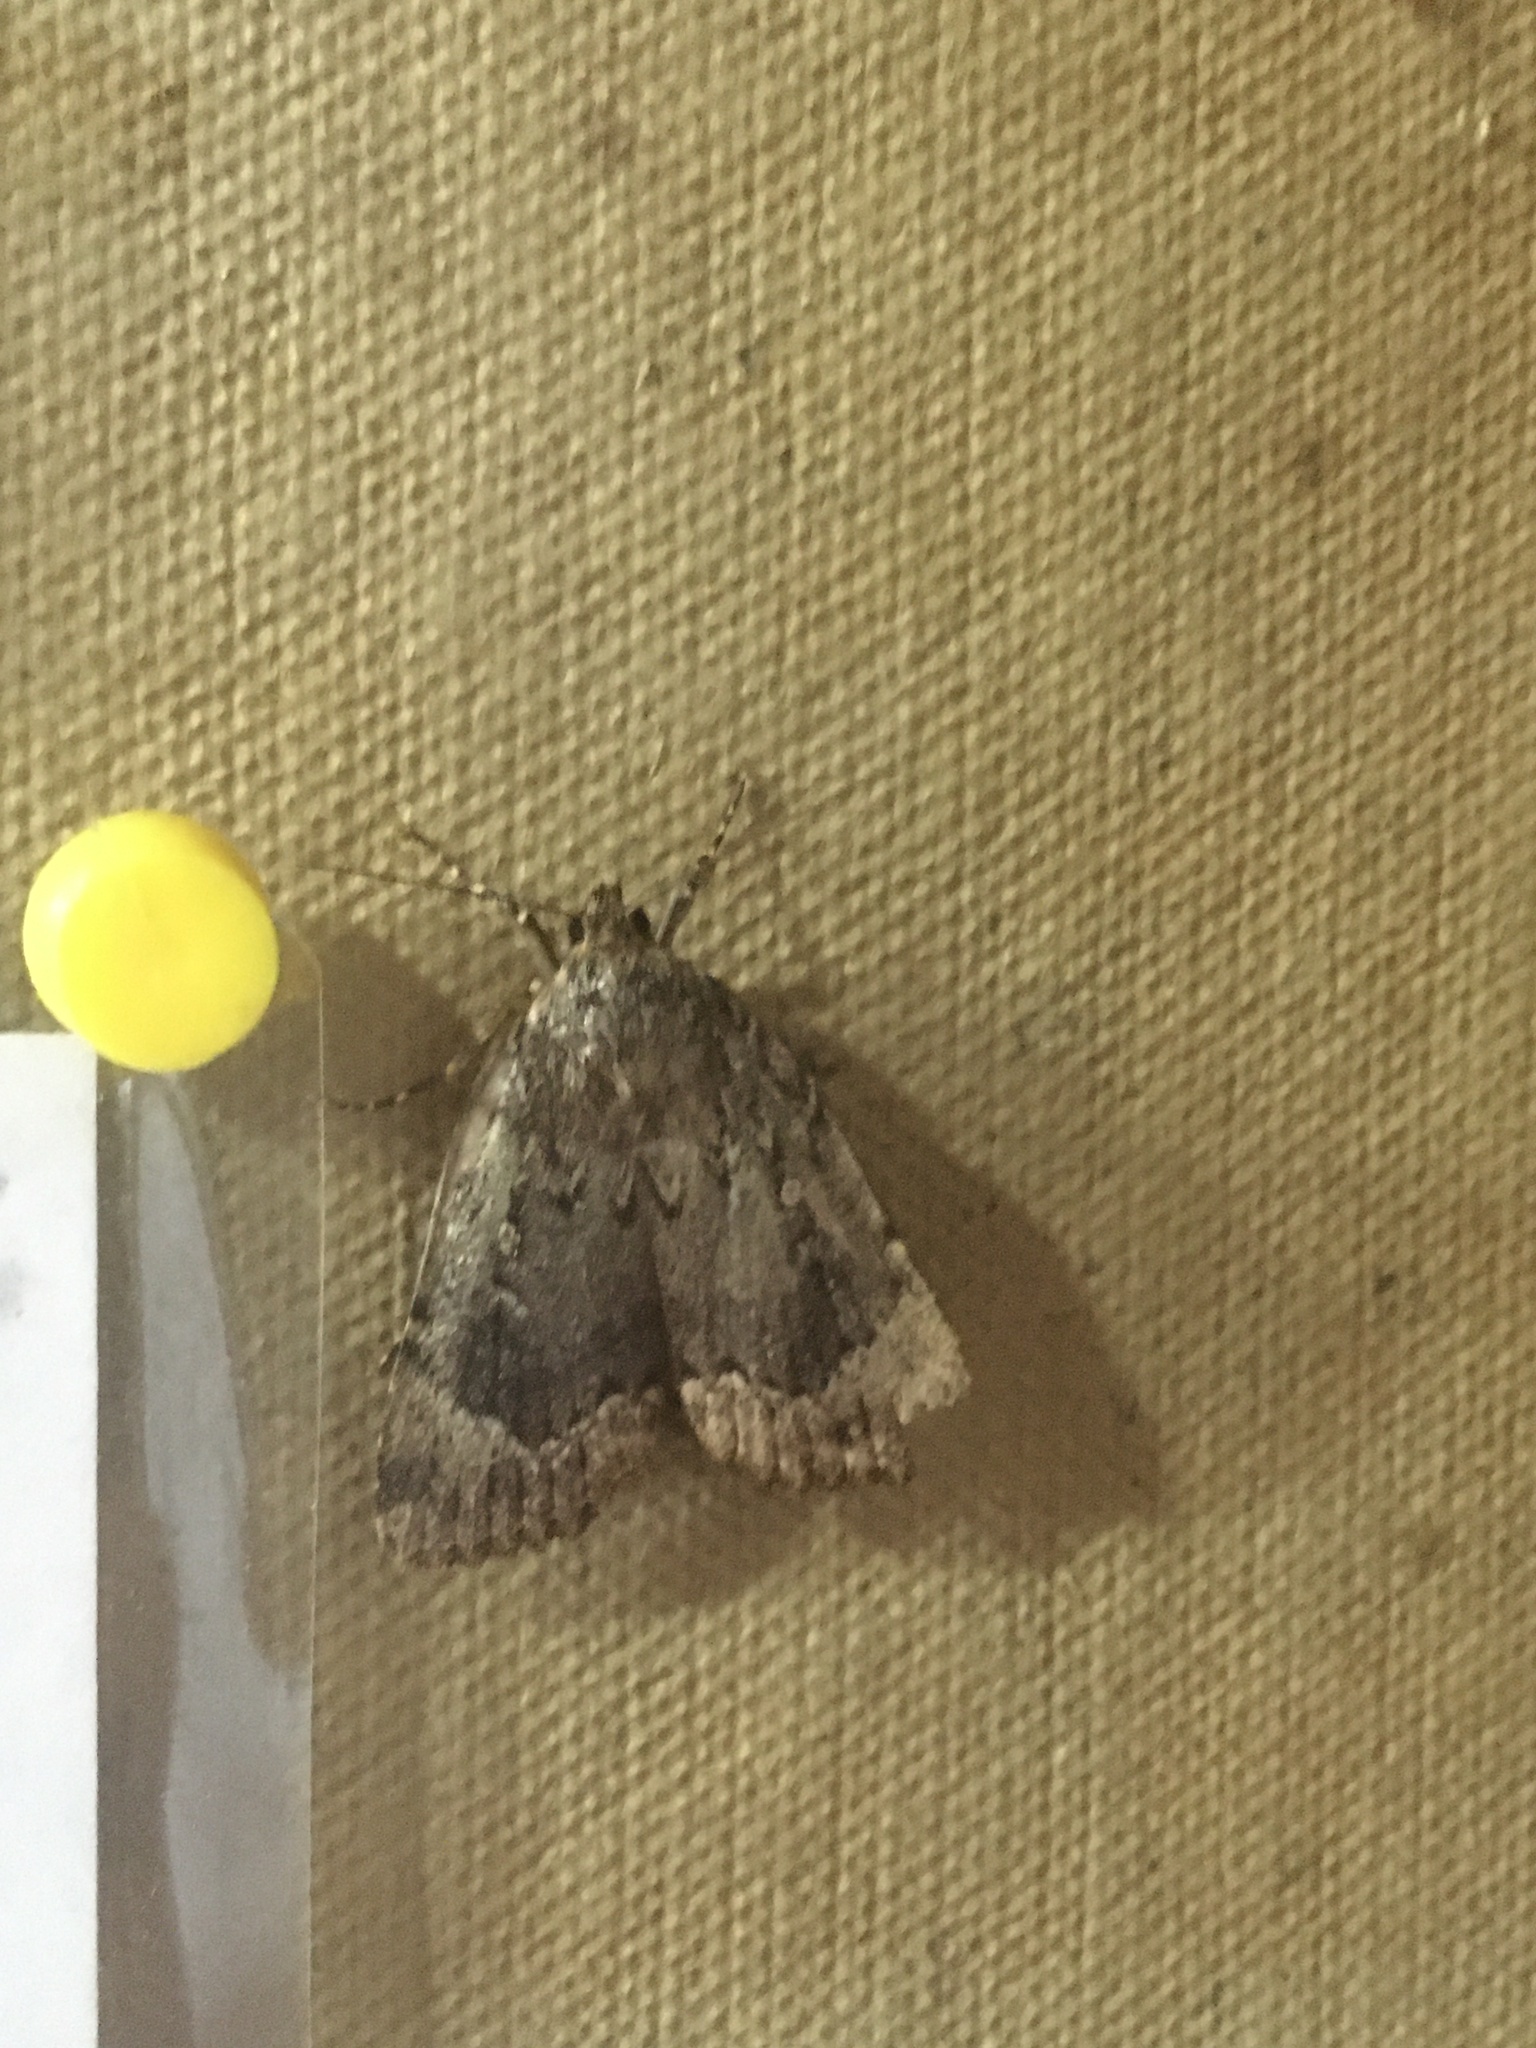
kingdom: Animalia
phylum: Arthropoda
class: Insecta
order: Lepidoptera
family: Noctuidae
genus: Amphipyra
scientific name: Amphipyra pyramidoides
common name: American copper underwing
